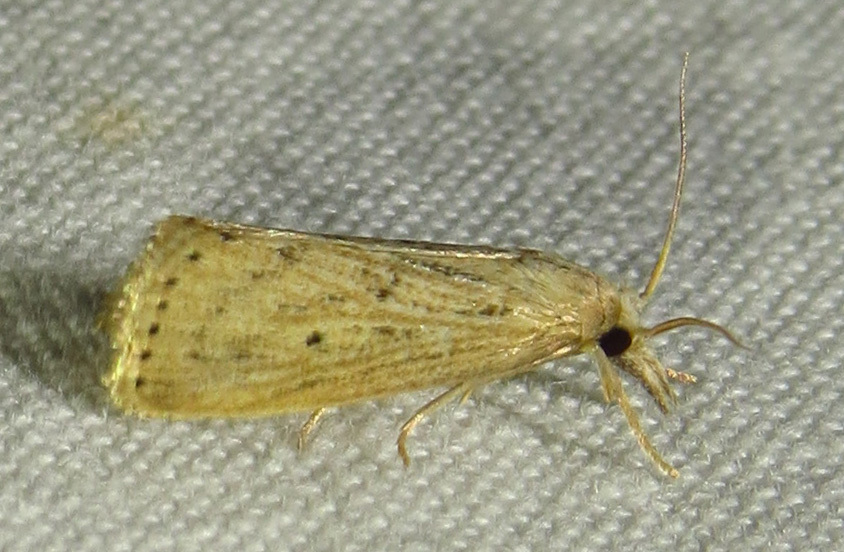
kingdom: Animalia
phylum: Arthropoda
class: Insecta
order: Lepidoptera
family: Crambidae
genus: Diatraea
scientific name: Diatraea lisetta
